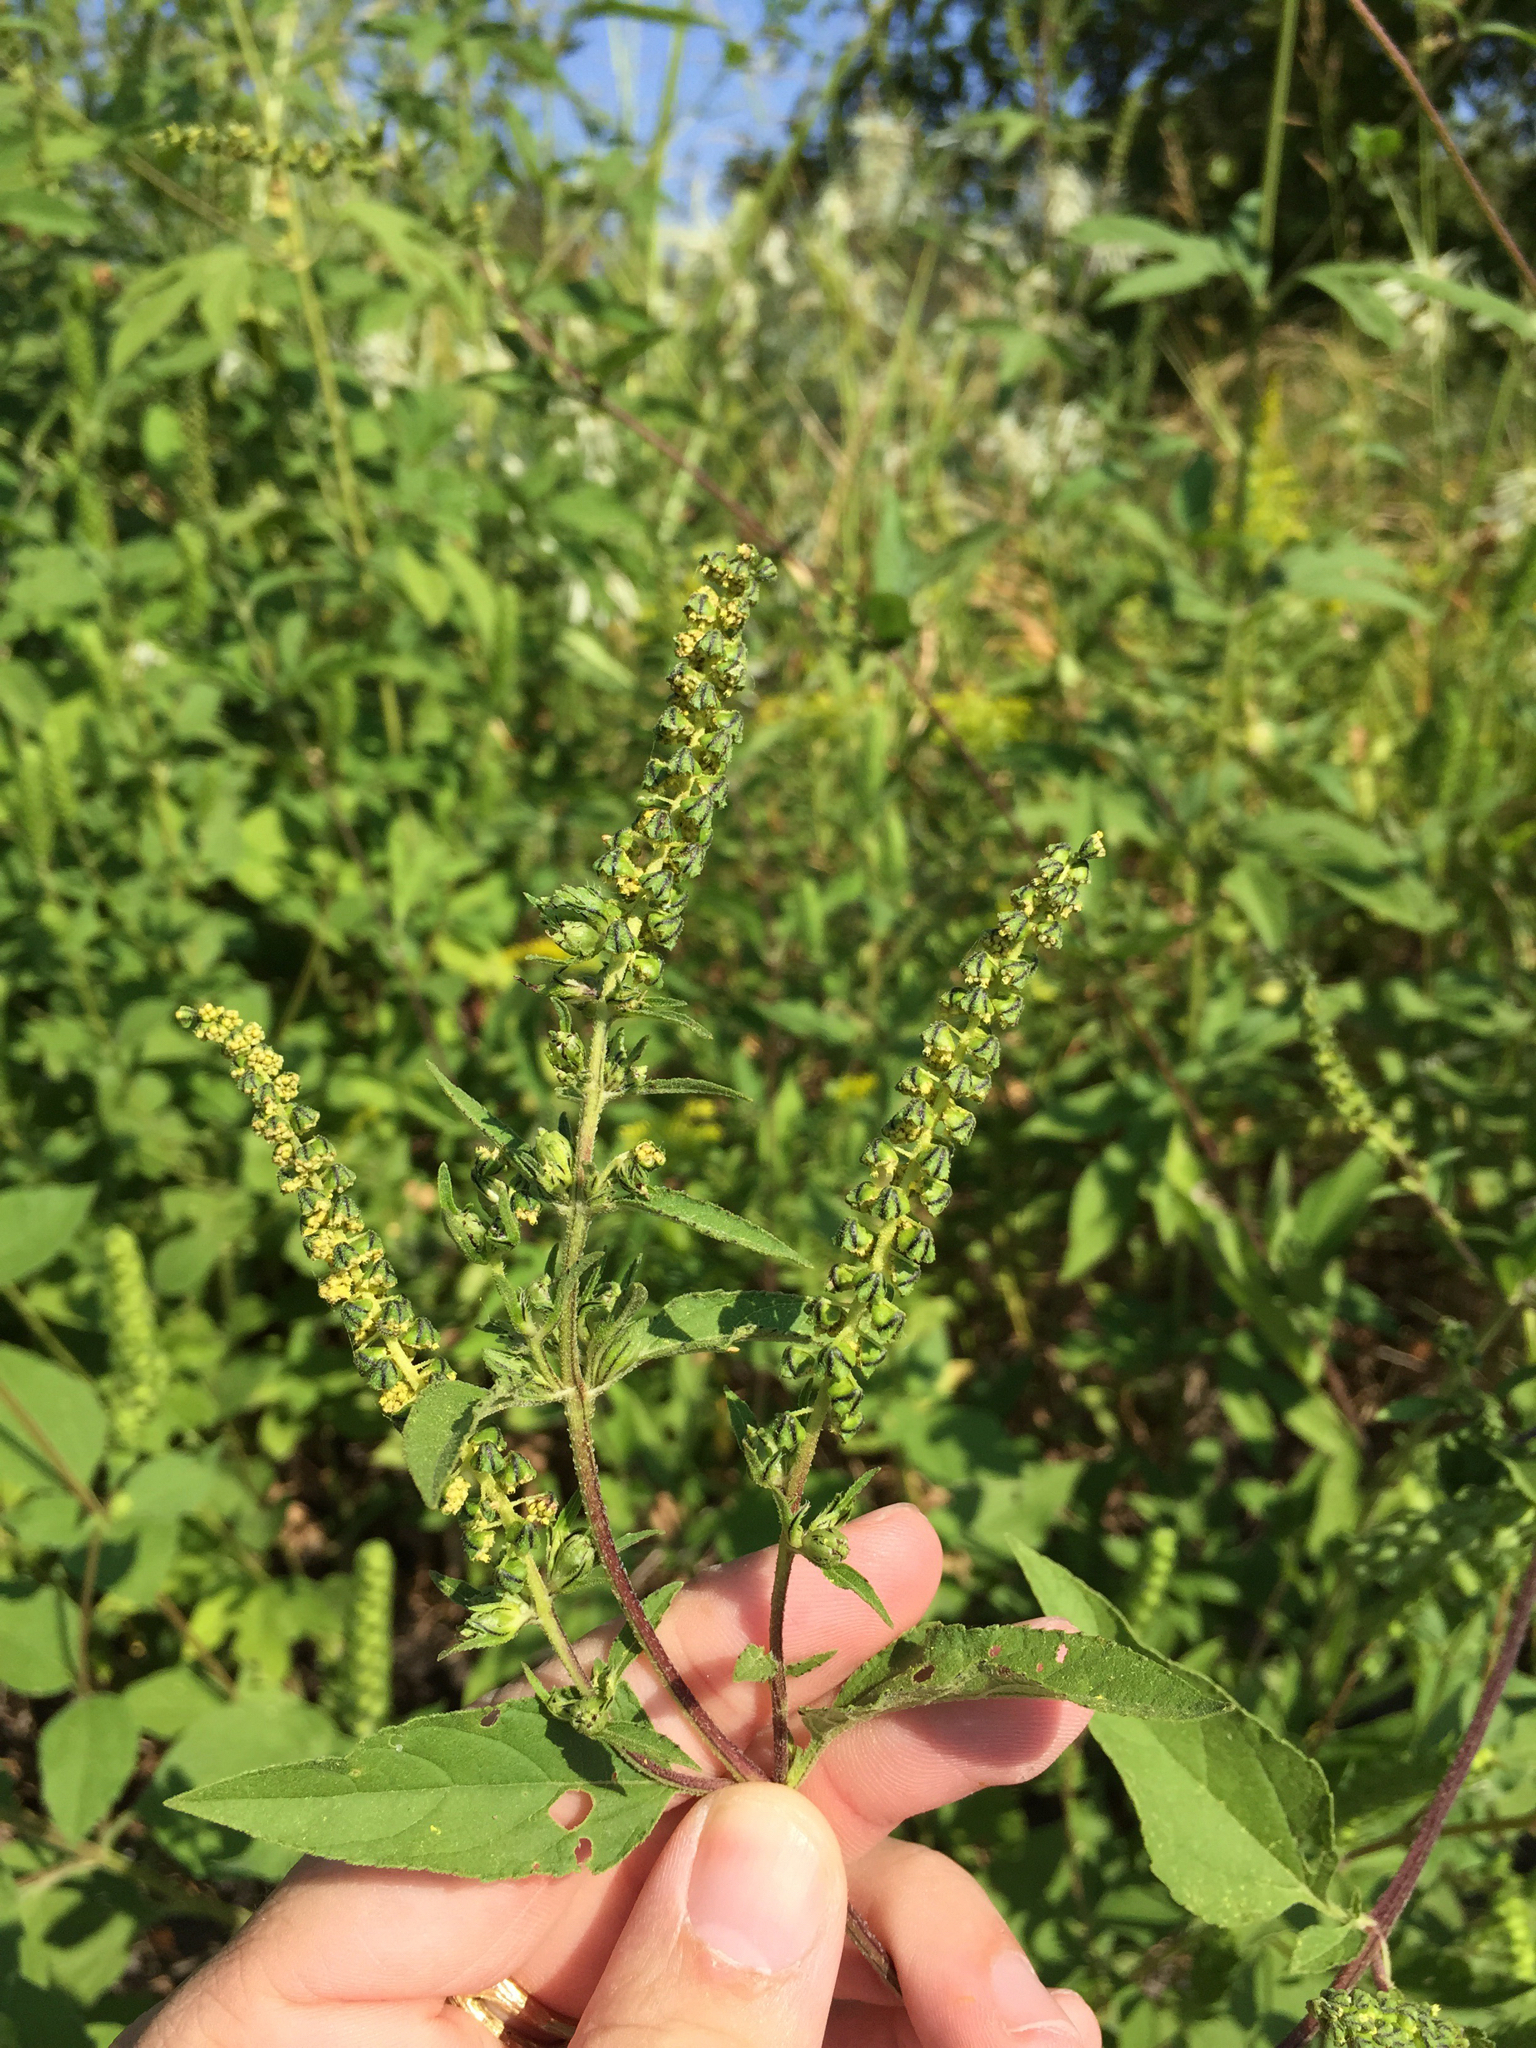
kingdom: Plantae
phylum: Tracheophyta
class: Magnoliopsida
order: Asterales
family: Asteraceae
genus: Ambrosia
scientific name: Ambrosia trifida
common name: Giant ragweed
